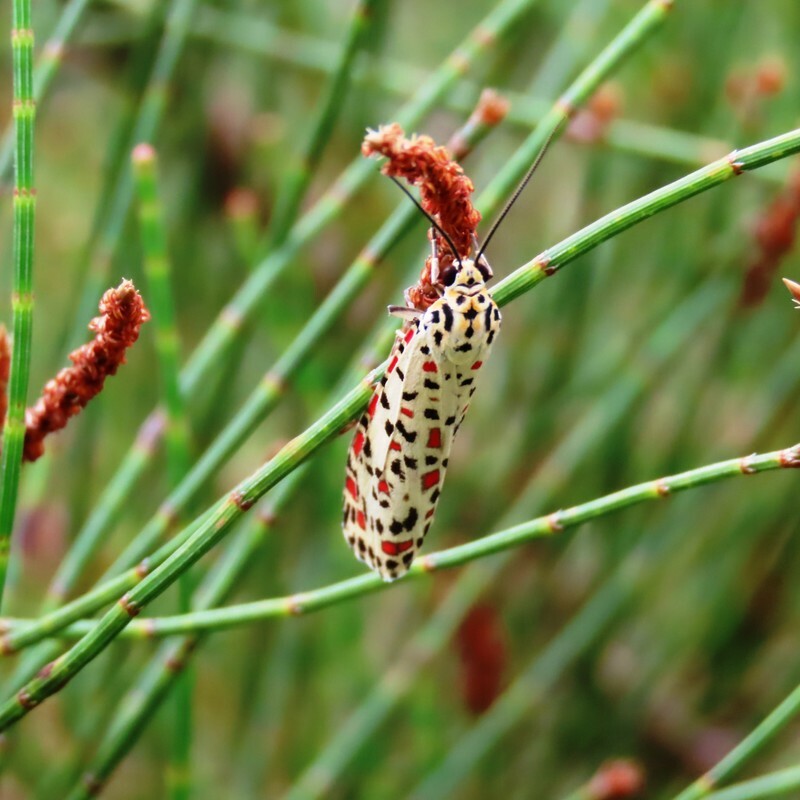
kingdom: Animalia
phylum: Arthropoda
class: Insecta
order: Lepidoptera
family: Erebidae
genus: Utetheisa
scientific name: Utetheisa pulchelloides
